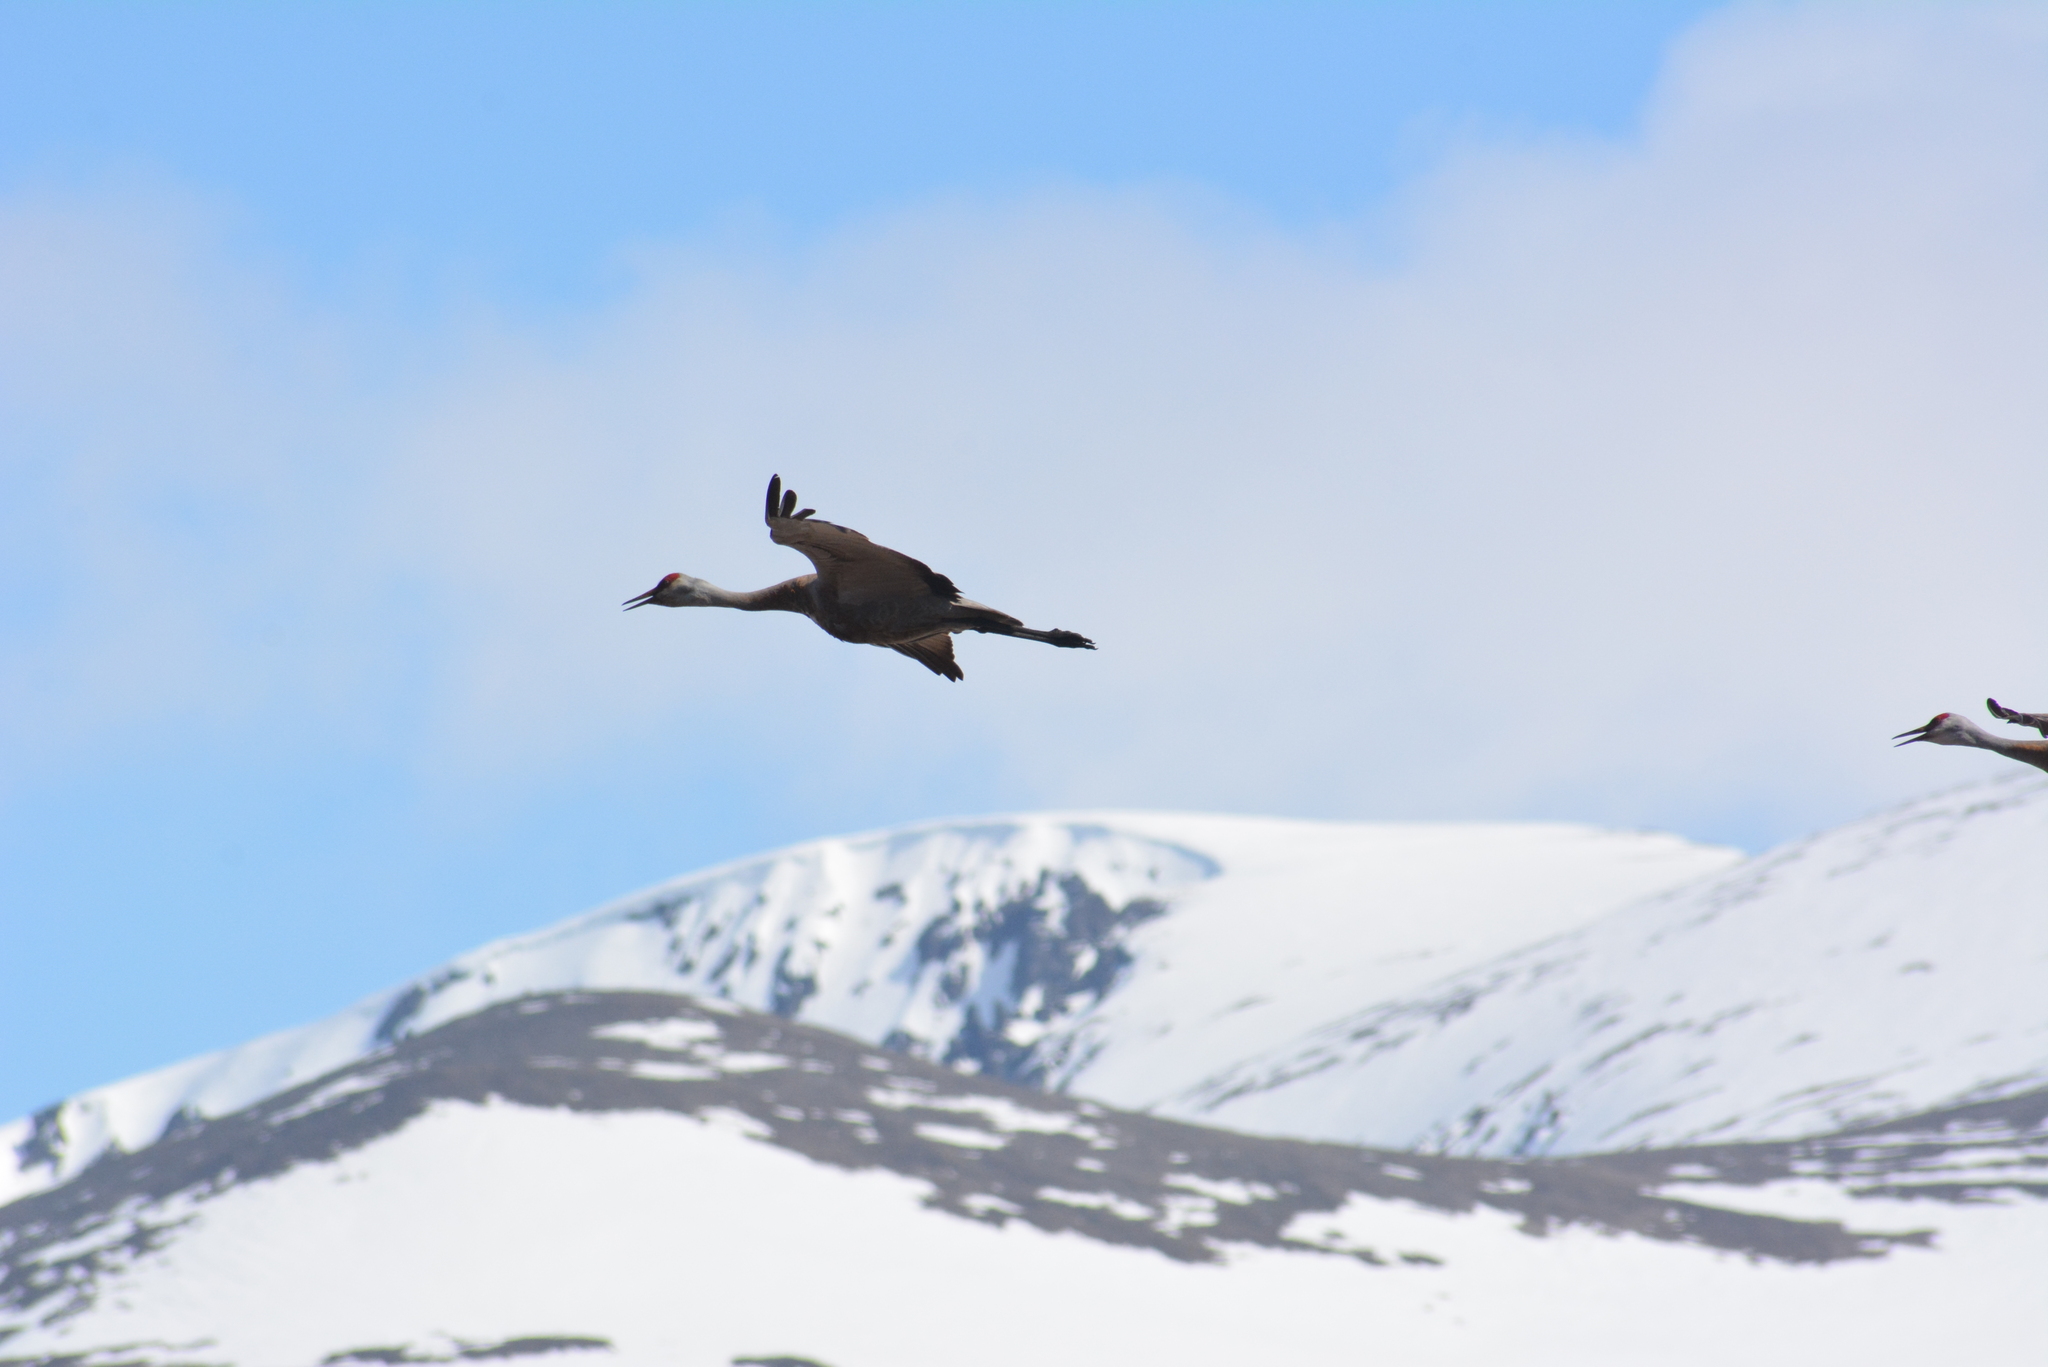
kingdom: Animalia
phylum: Chordata
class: Aves
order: Gruiformes
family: Gruidae
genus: Grus
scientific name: Grus canadensis
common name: Sandhill crane
